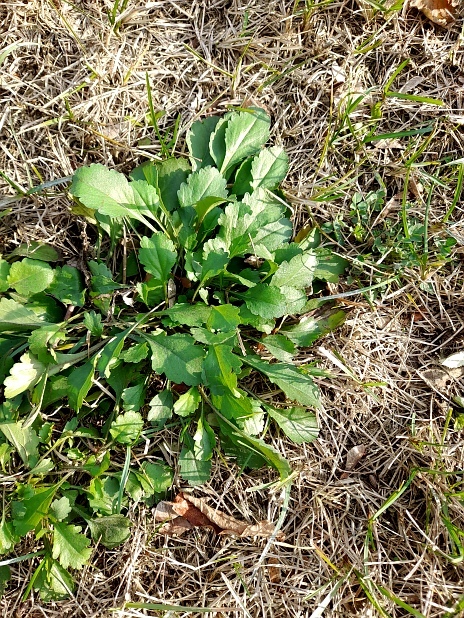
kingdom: Plantae
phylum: Tracheophyta
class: Magnoliopsida
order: Asterales
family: Asteraceae
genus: Leucanthemum
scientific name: Leucanthemum vulgare
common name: Oxeye daisy
